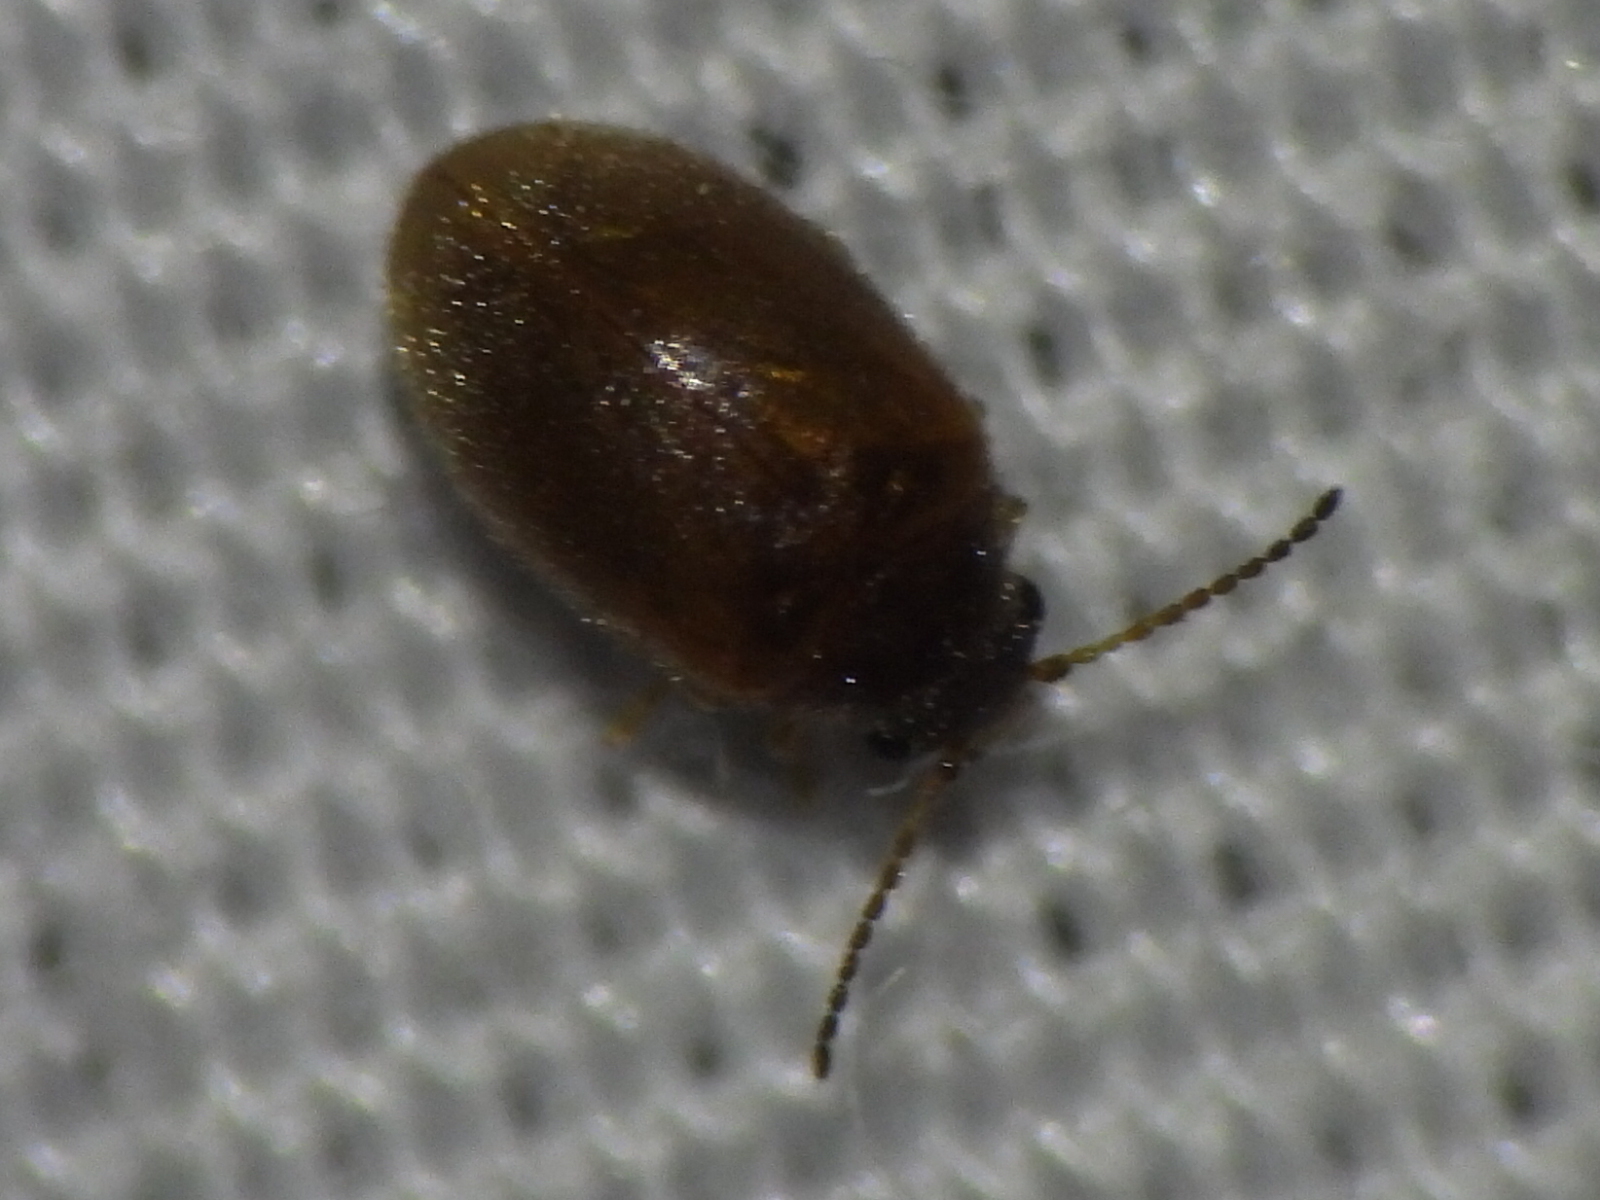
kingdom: Animalia
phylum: Arthropoda
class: Insecta
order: Coleoptera
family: Scirtidae
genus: Contacyphon
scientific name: Contacyphon
